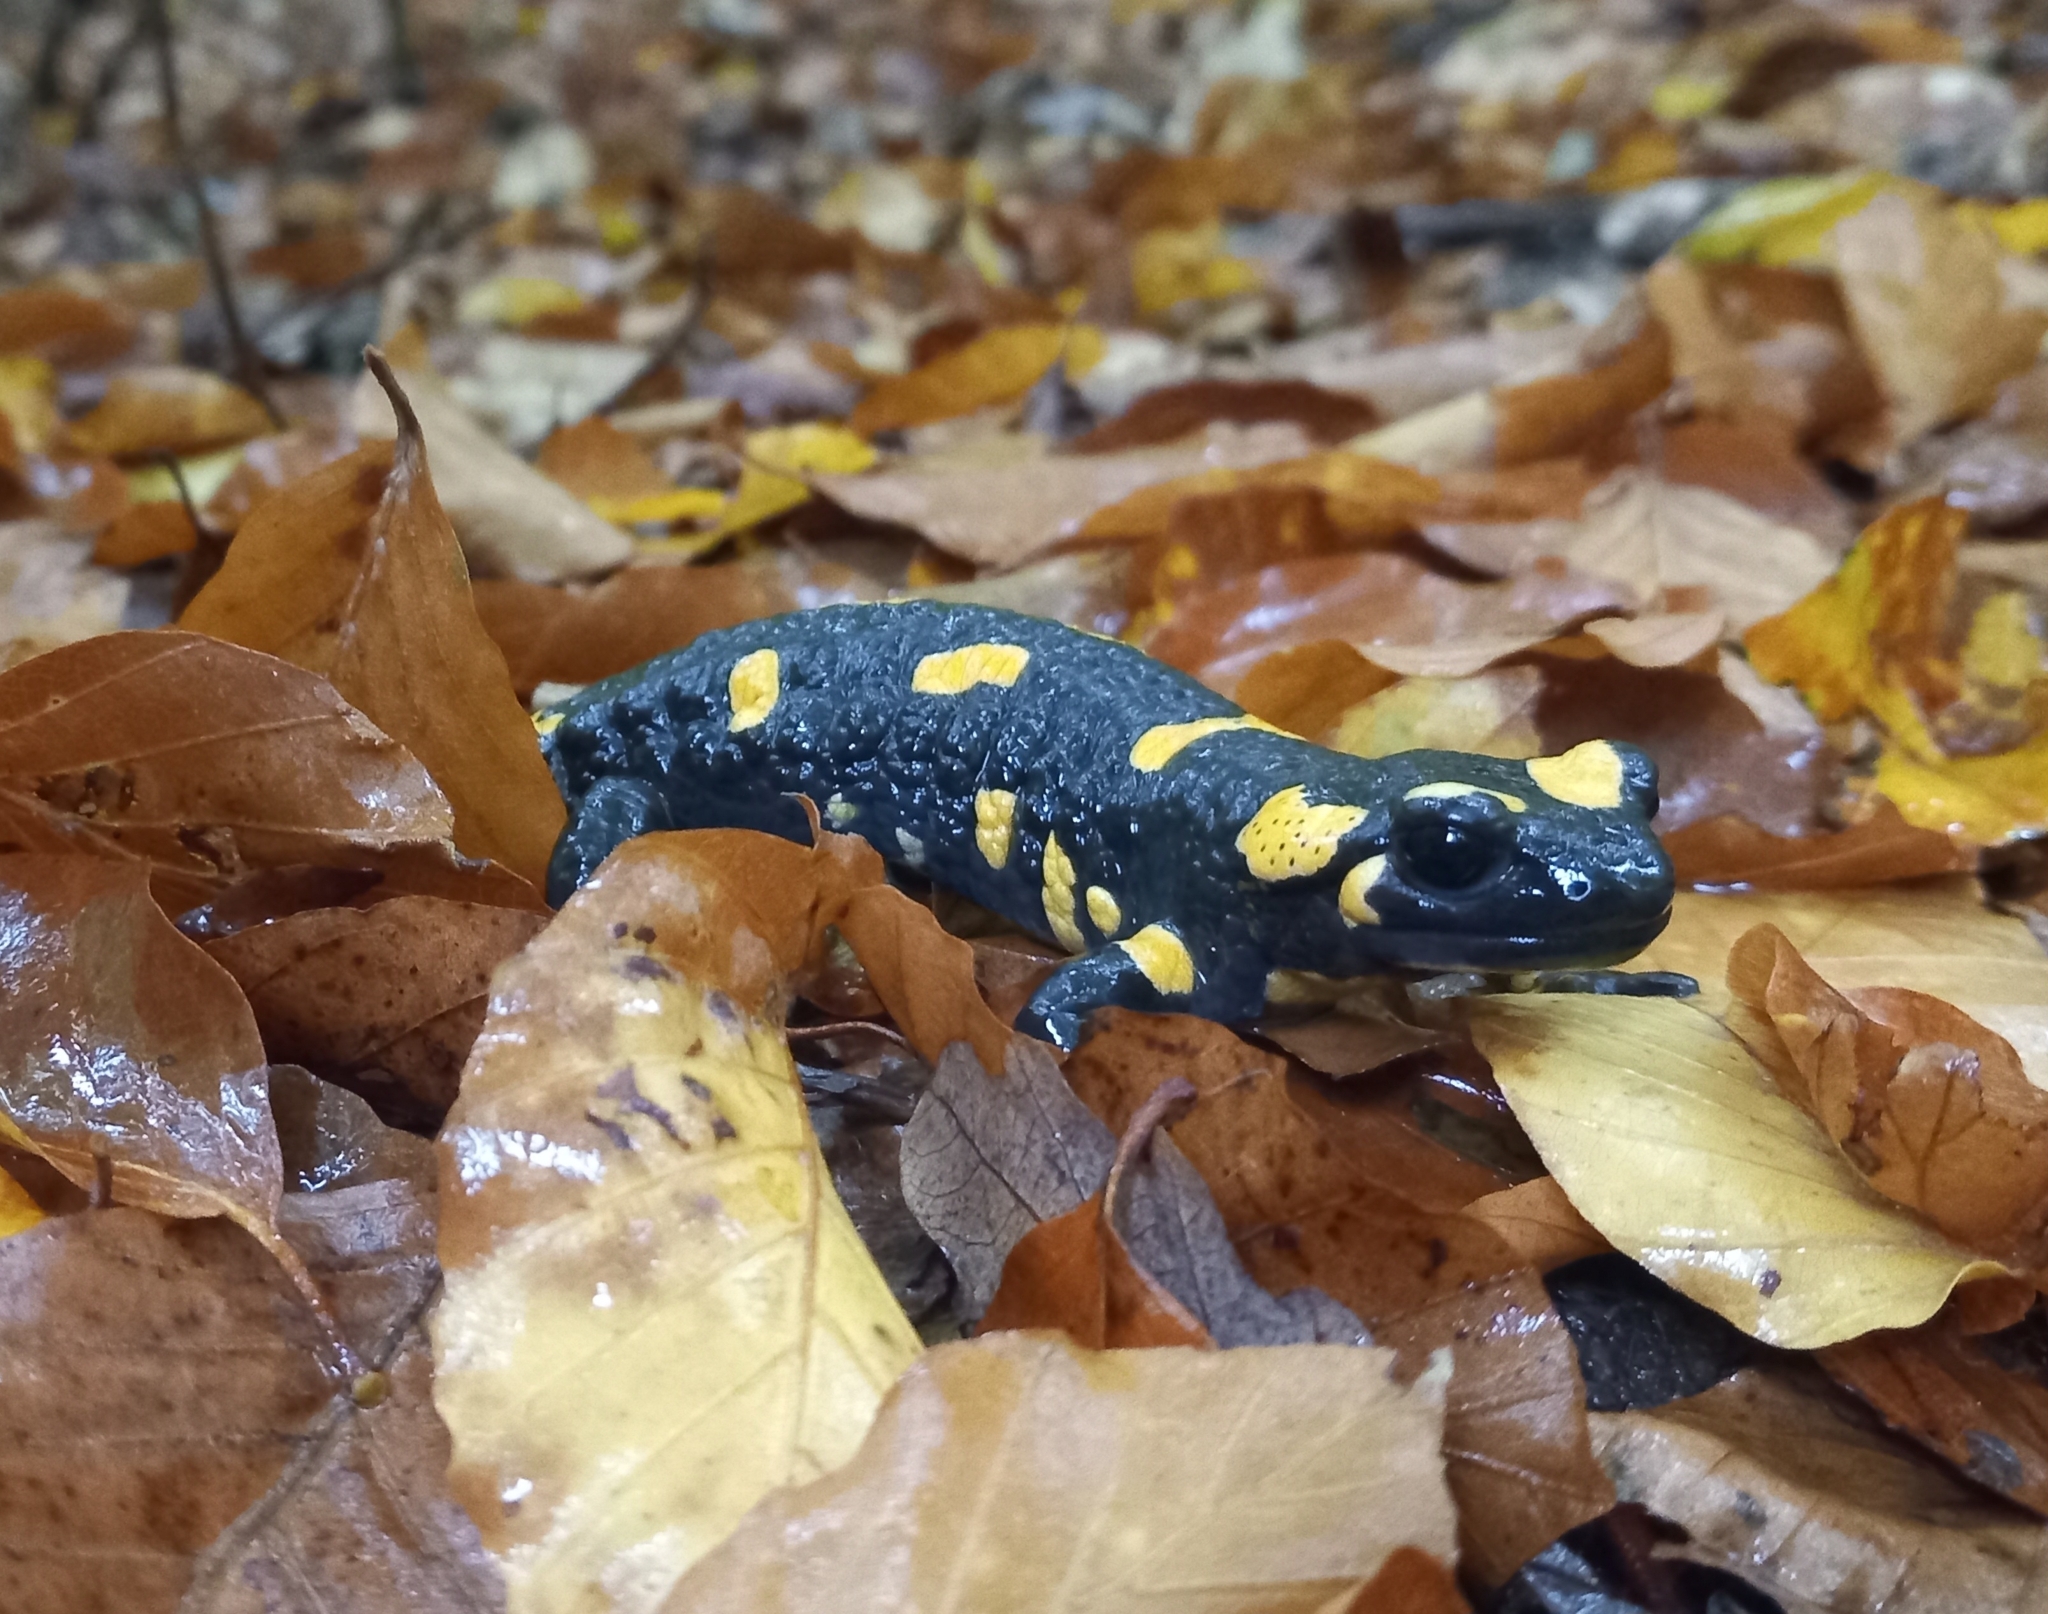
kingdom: Animalia
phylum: Chordata
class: Amphibia
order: Caudata
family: Salamandridae
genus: Salamandra
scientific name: Salamandra salamandra
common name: Fire salamander
